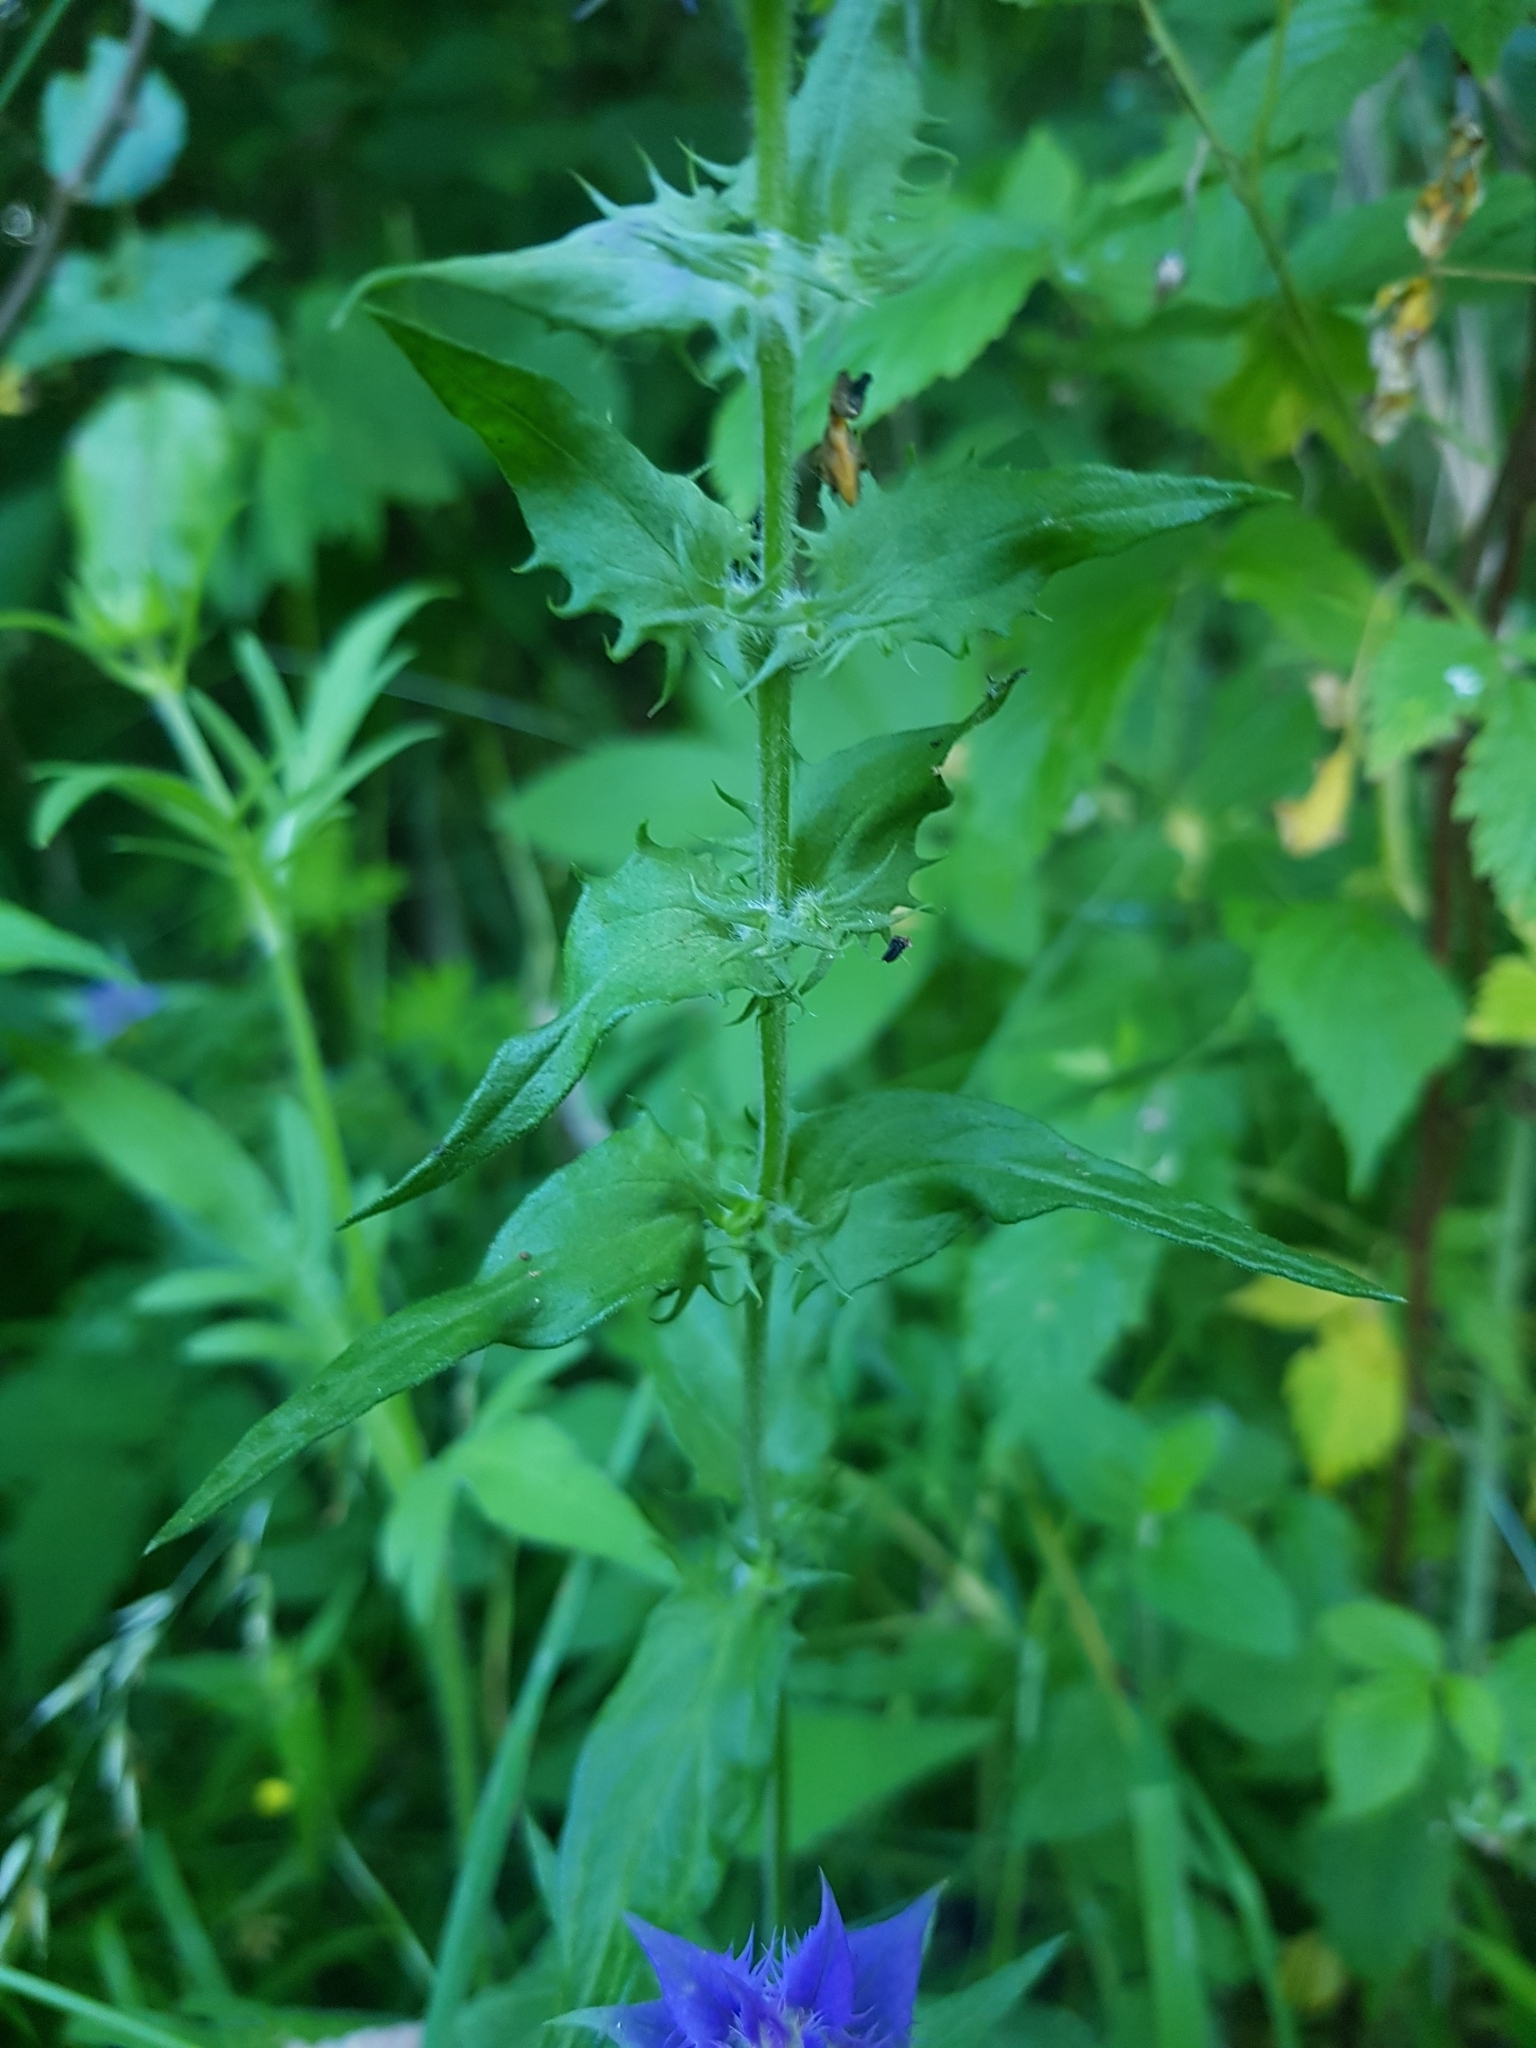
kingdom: Plantae
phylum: Tracheophyta
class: Magnoliopsida
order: Lamiales
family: Orobanchaceae
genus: Melampyrum
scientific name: Melampyrum nemorosum
